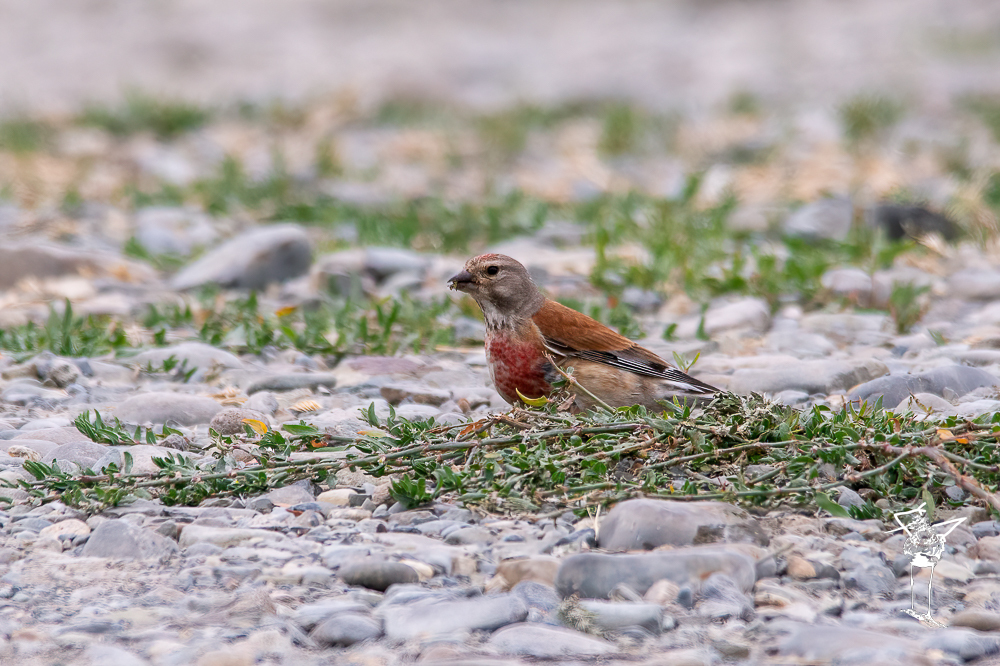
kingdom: Animalia
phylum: Chordata
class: Aves
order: Passeriformes
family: Fringillidae
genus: Linaria
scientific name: Linaria cannabina
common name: Common linnet
